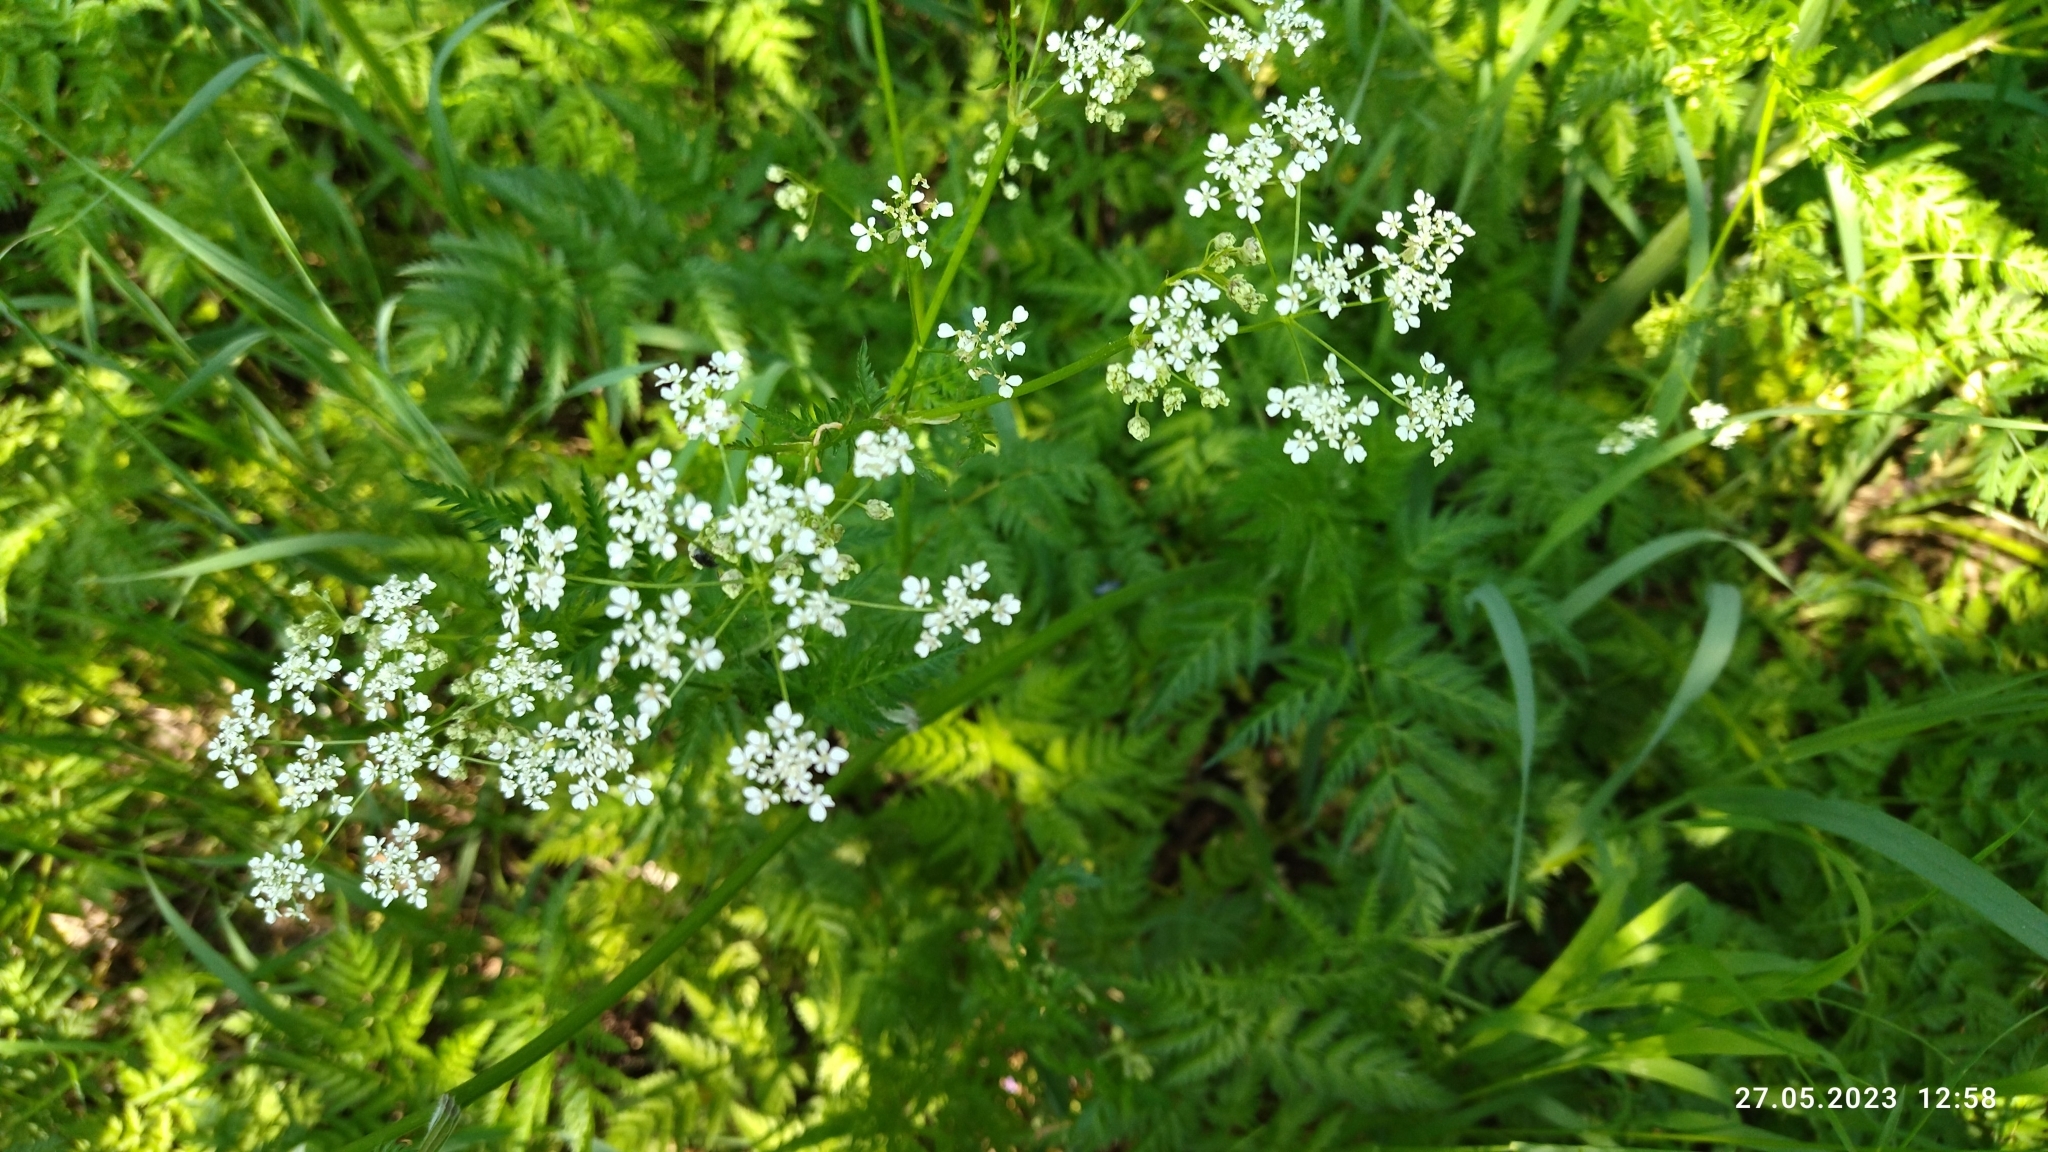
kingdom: Plantae
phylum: Tracheophyta
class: Magnoliopsida
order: Apiales
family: Apiaceae
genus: Anthriscus
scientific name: Anthriscus sylvestris
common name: Cow parsley
